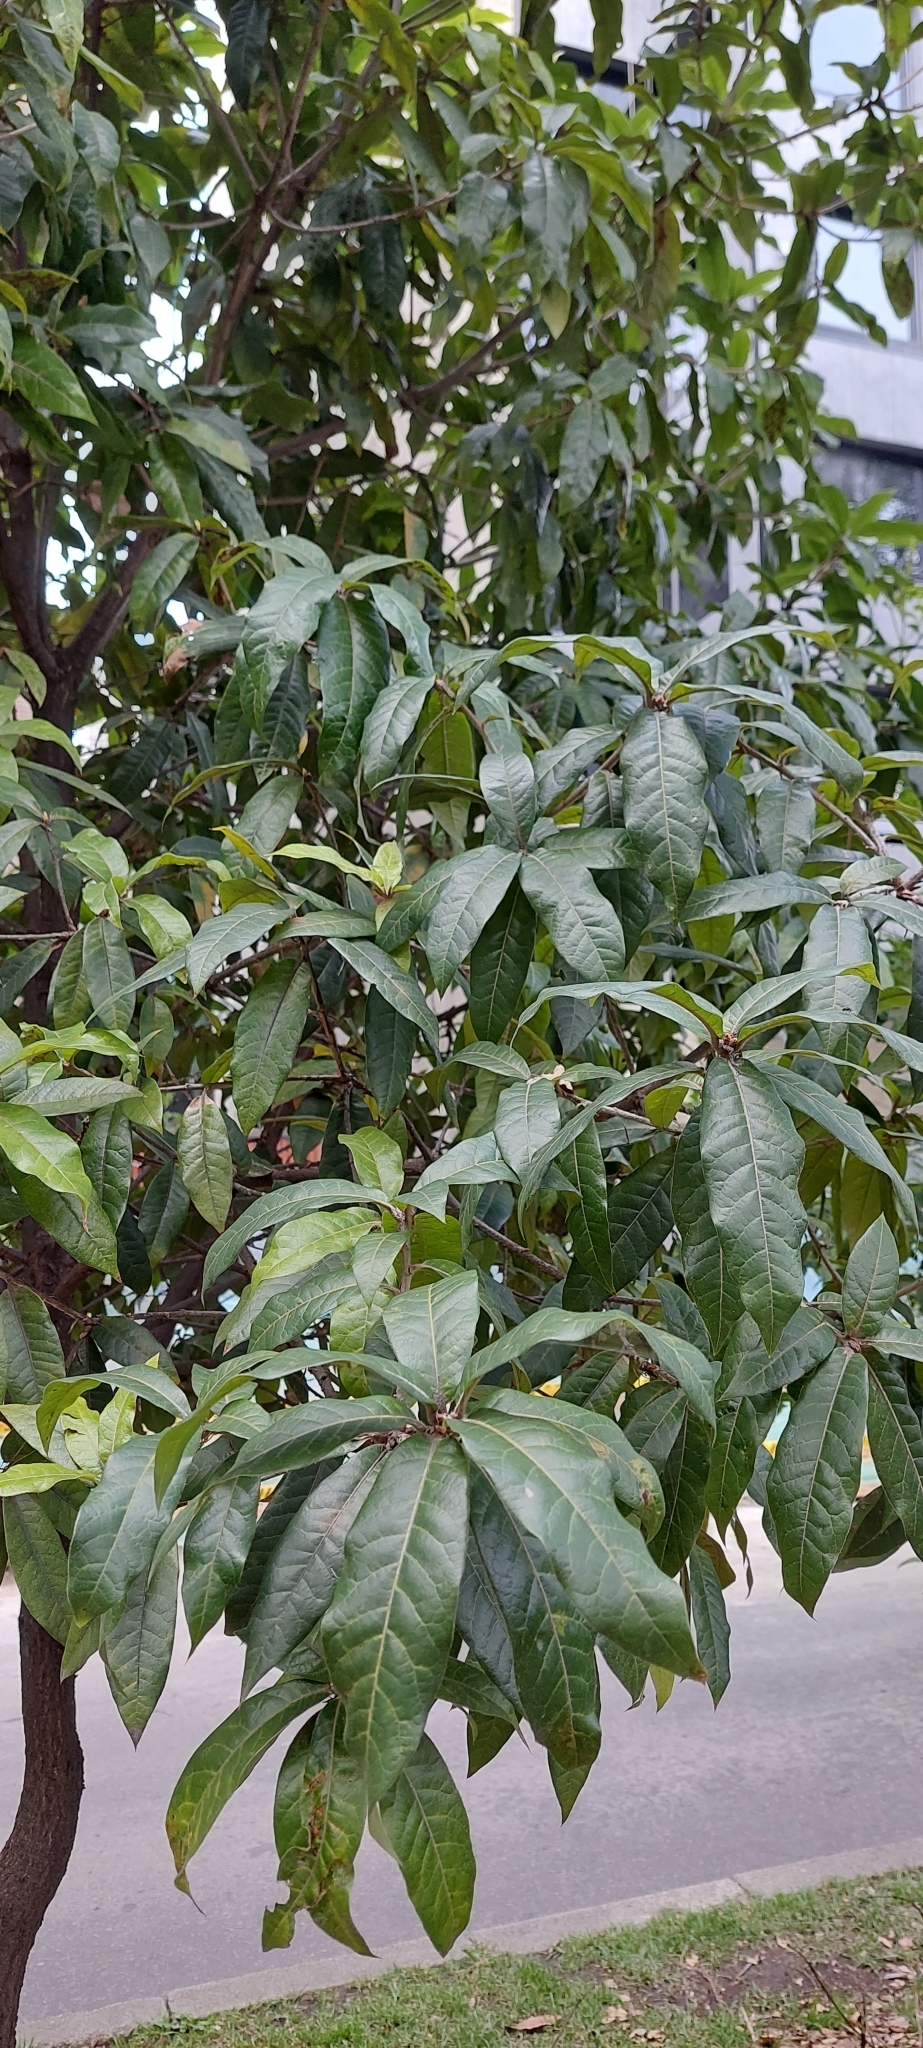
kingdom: Plantae
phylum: Tracheophyta
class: Magnoliopsida
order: Fagales
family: Fagaceae
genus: Quercus
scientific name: Quercus humboldtii
